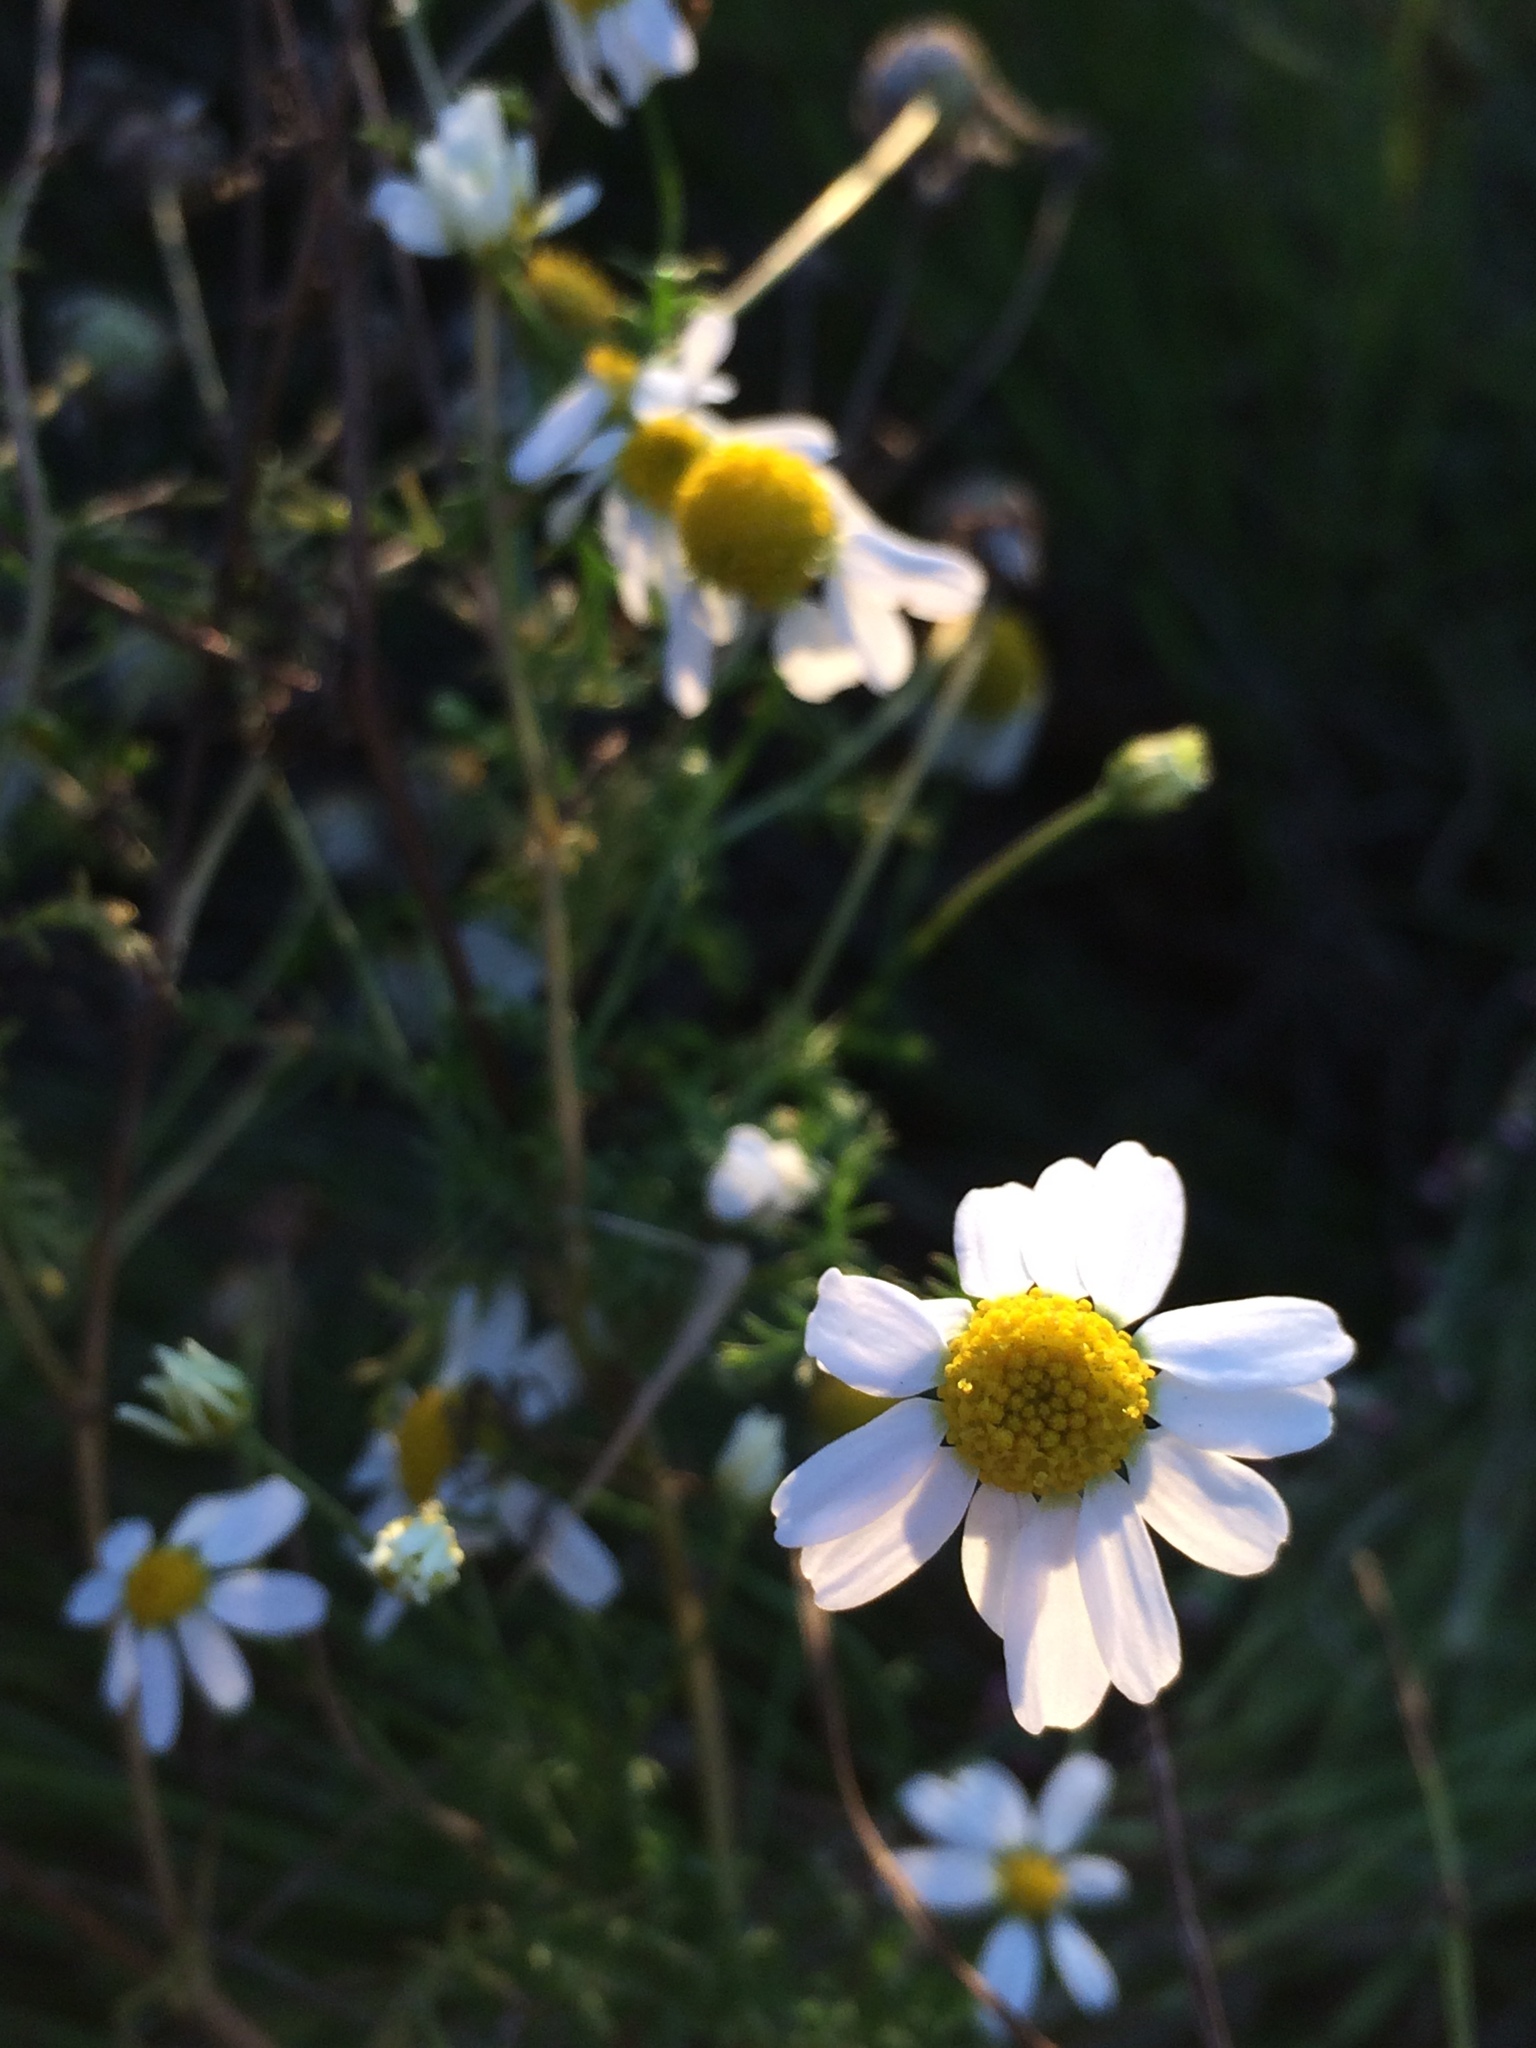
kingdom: Plantae
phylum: Tracheophyta
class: Magnoliopsida
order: Asterales
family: Asteraceae
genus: Anthemis
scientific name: Anthemis cotula
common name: Stinking chamomile
